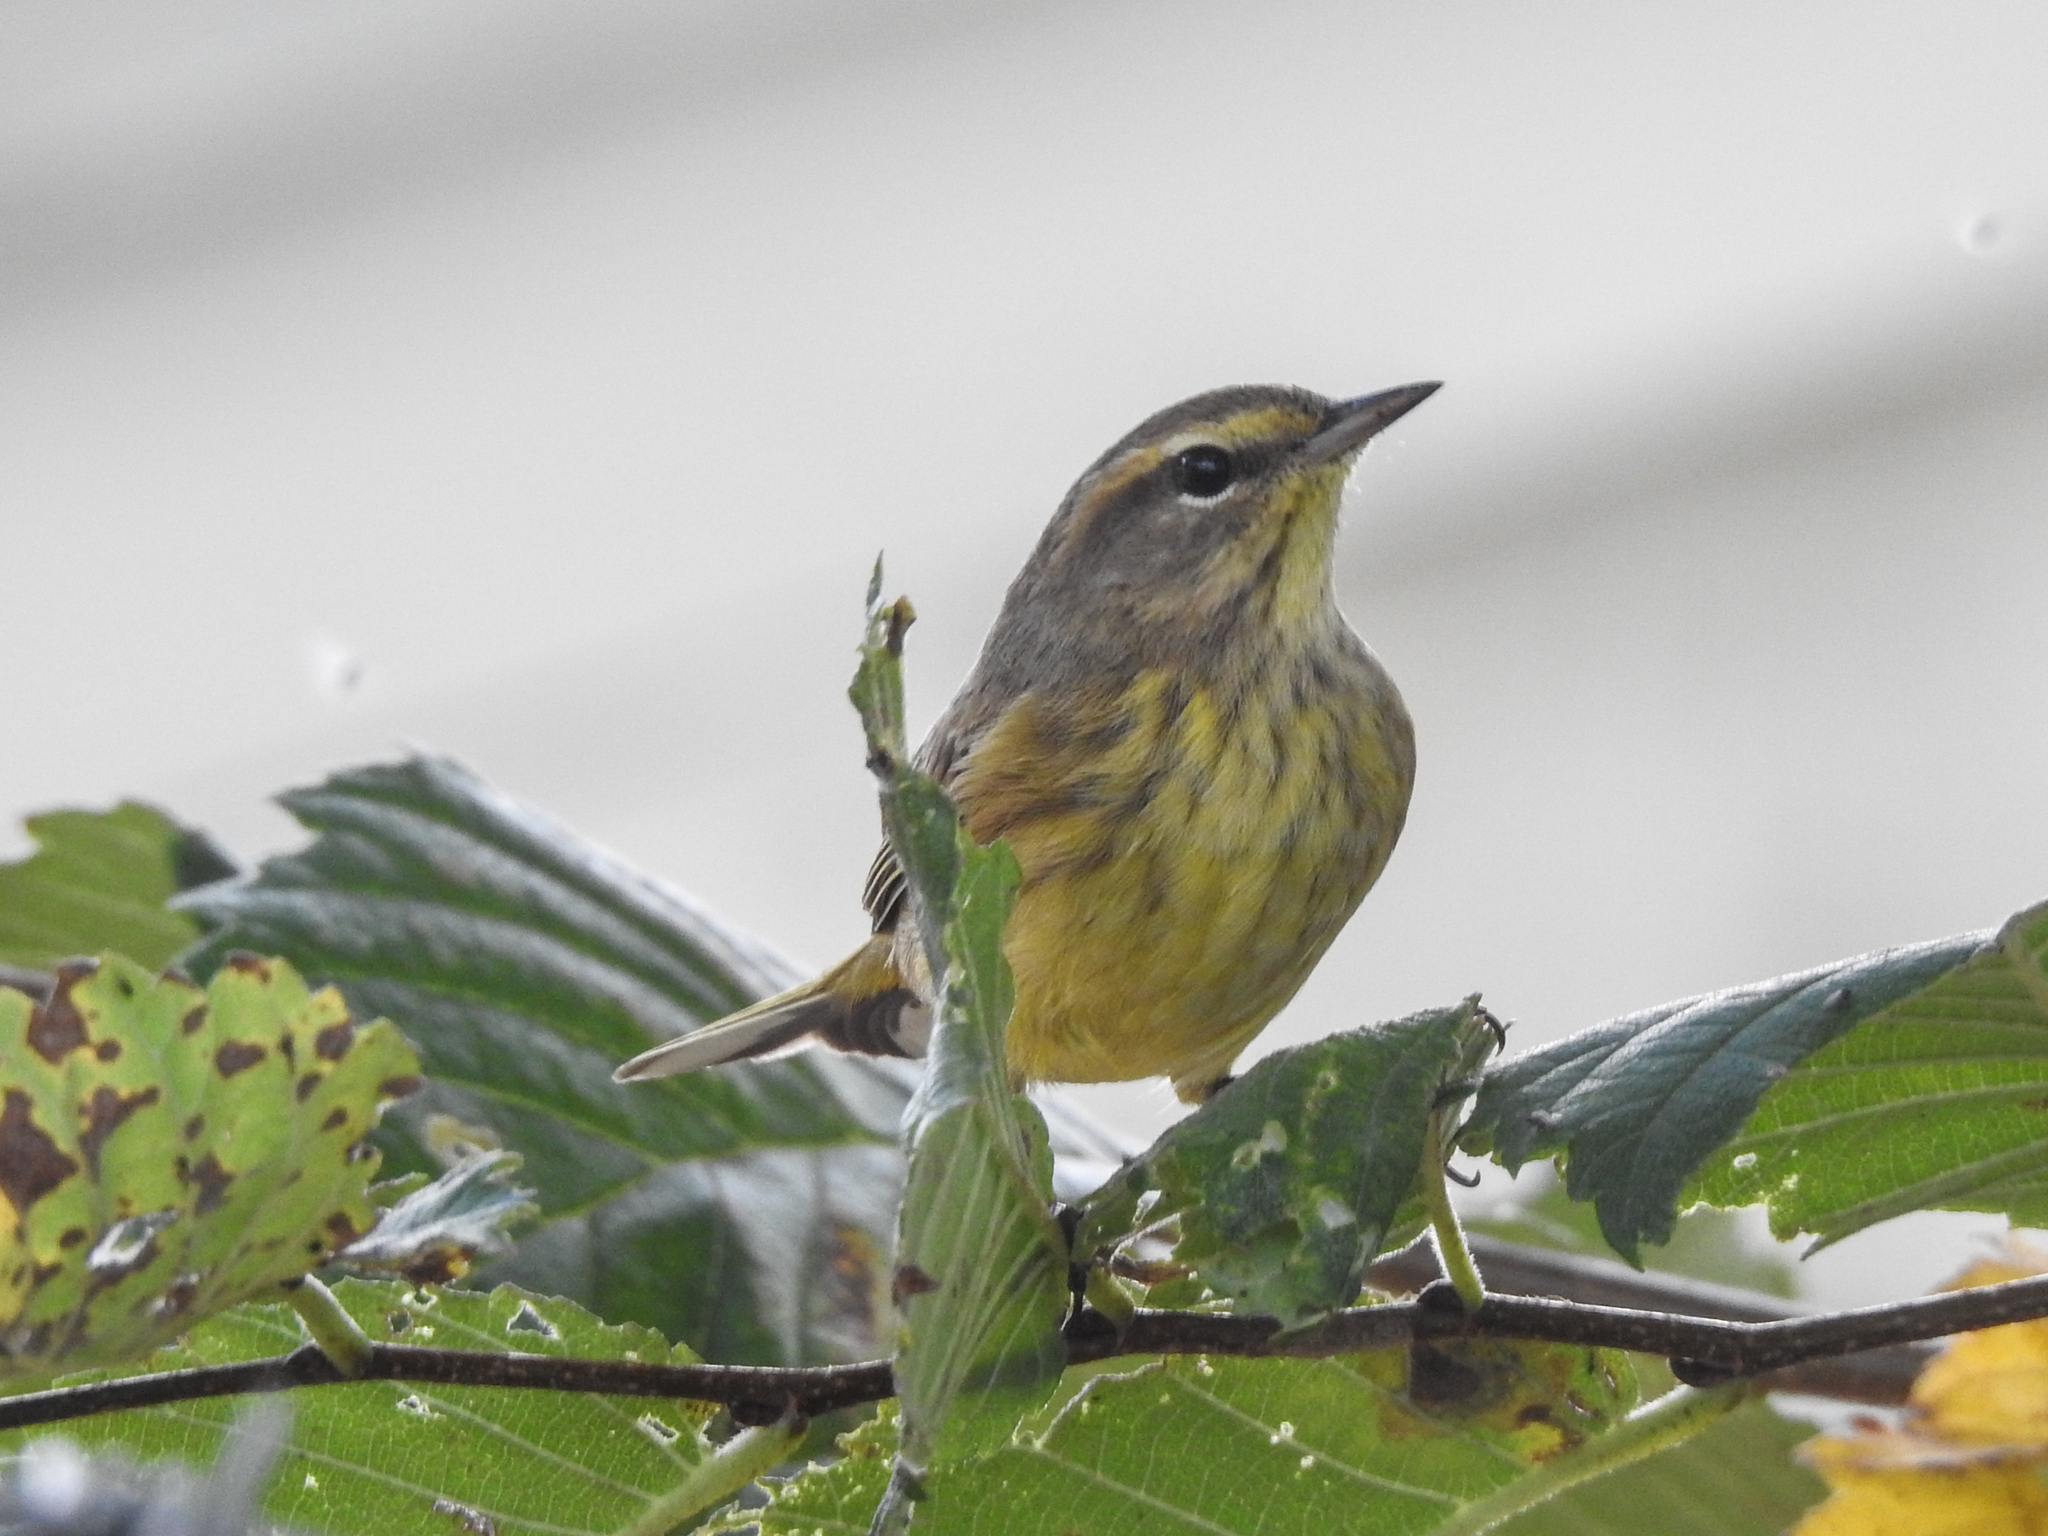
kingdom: Animalia
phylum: Chordata
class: Aves
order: Passeriformes
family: Parulidae
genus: Setophaga
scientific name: Setophaga palmarum
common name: Palm warbler
